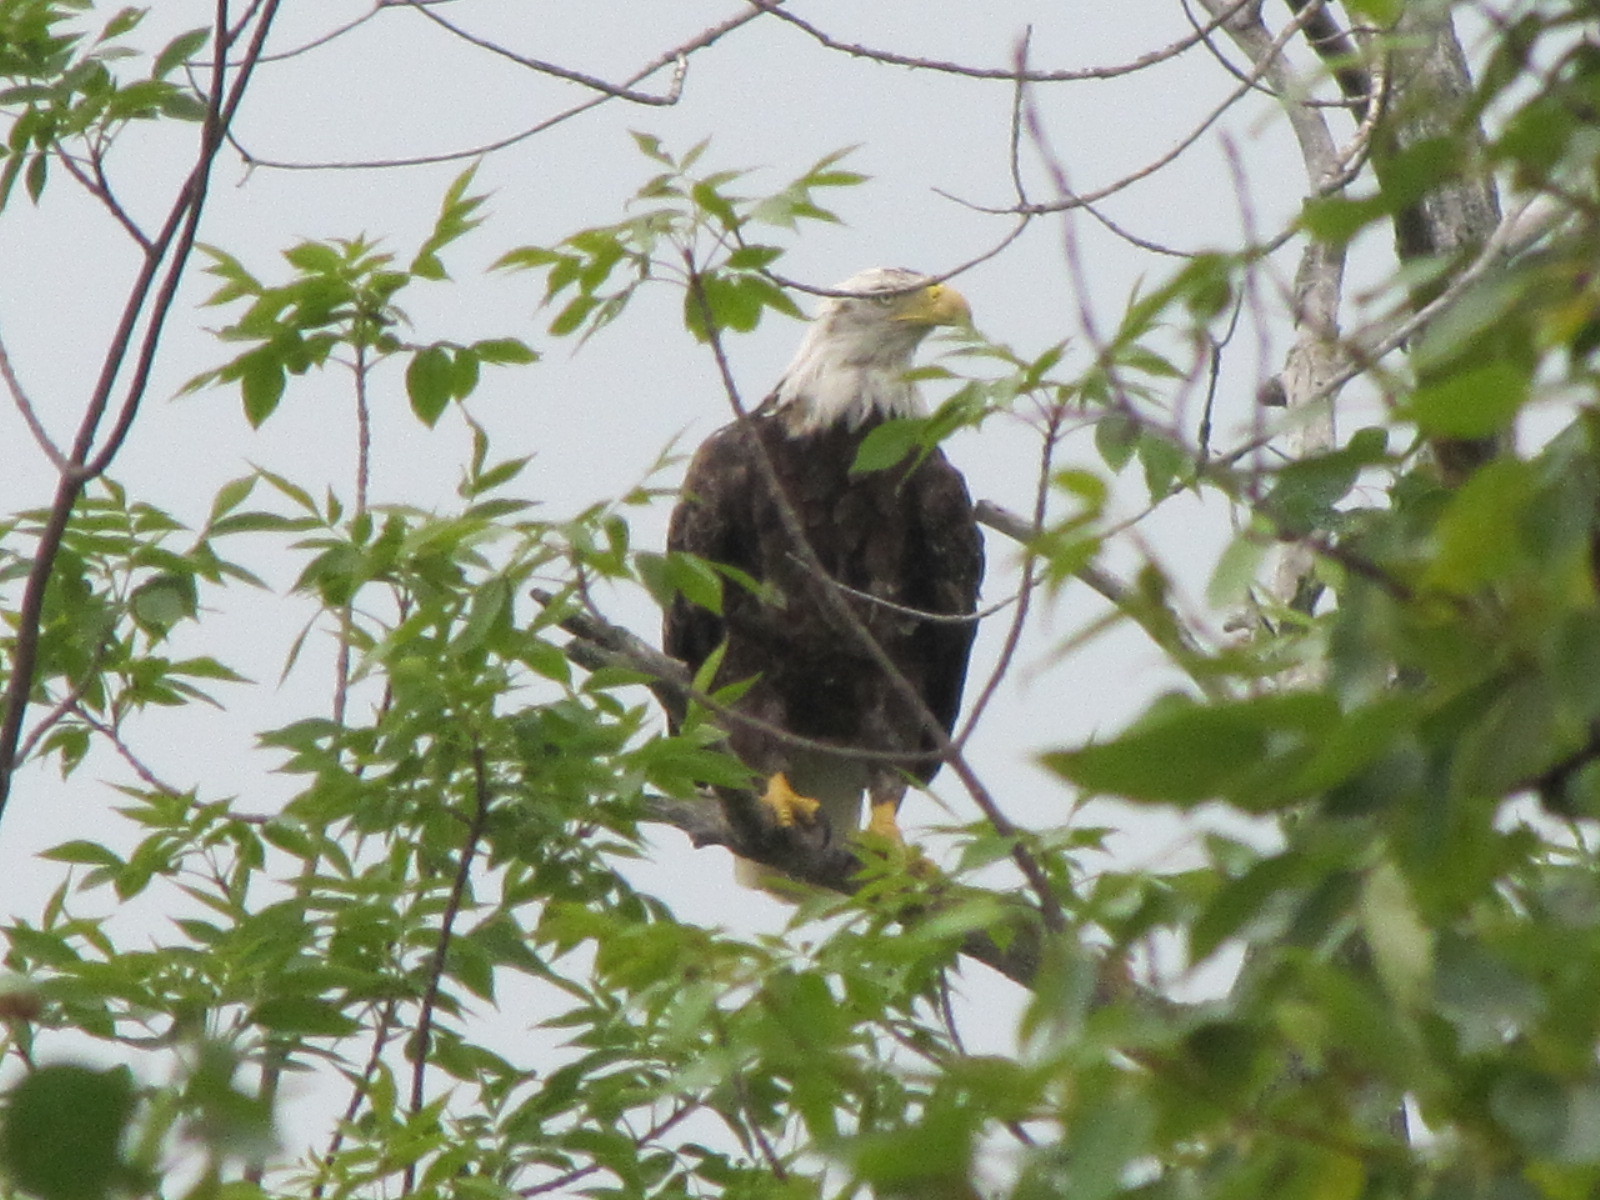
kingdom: Animalia
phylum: Chordata
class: Aves
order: Accipitriformes
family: Accipitridae
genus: Haliaeetus
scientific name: Haliaeetus leucocephalus
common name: Bald eagle
